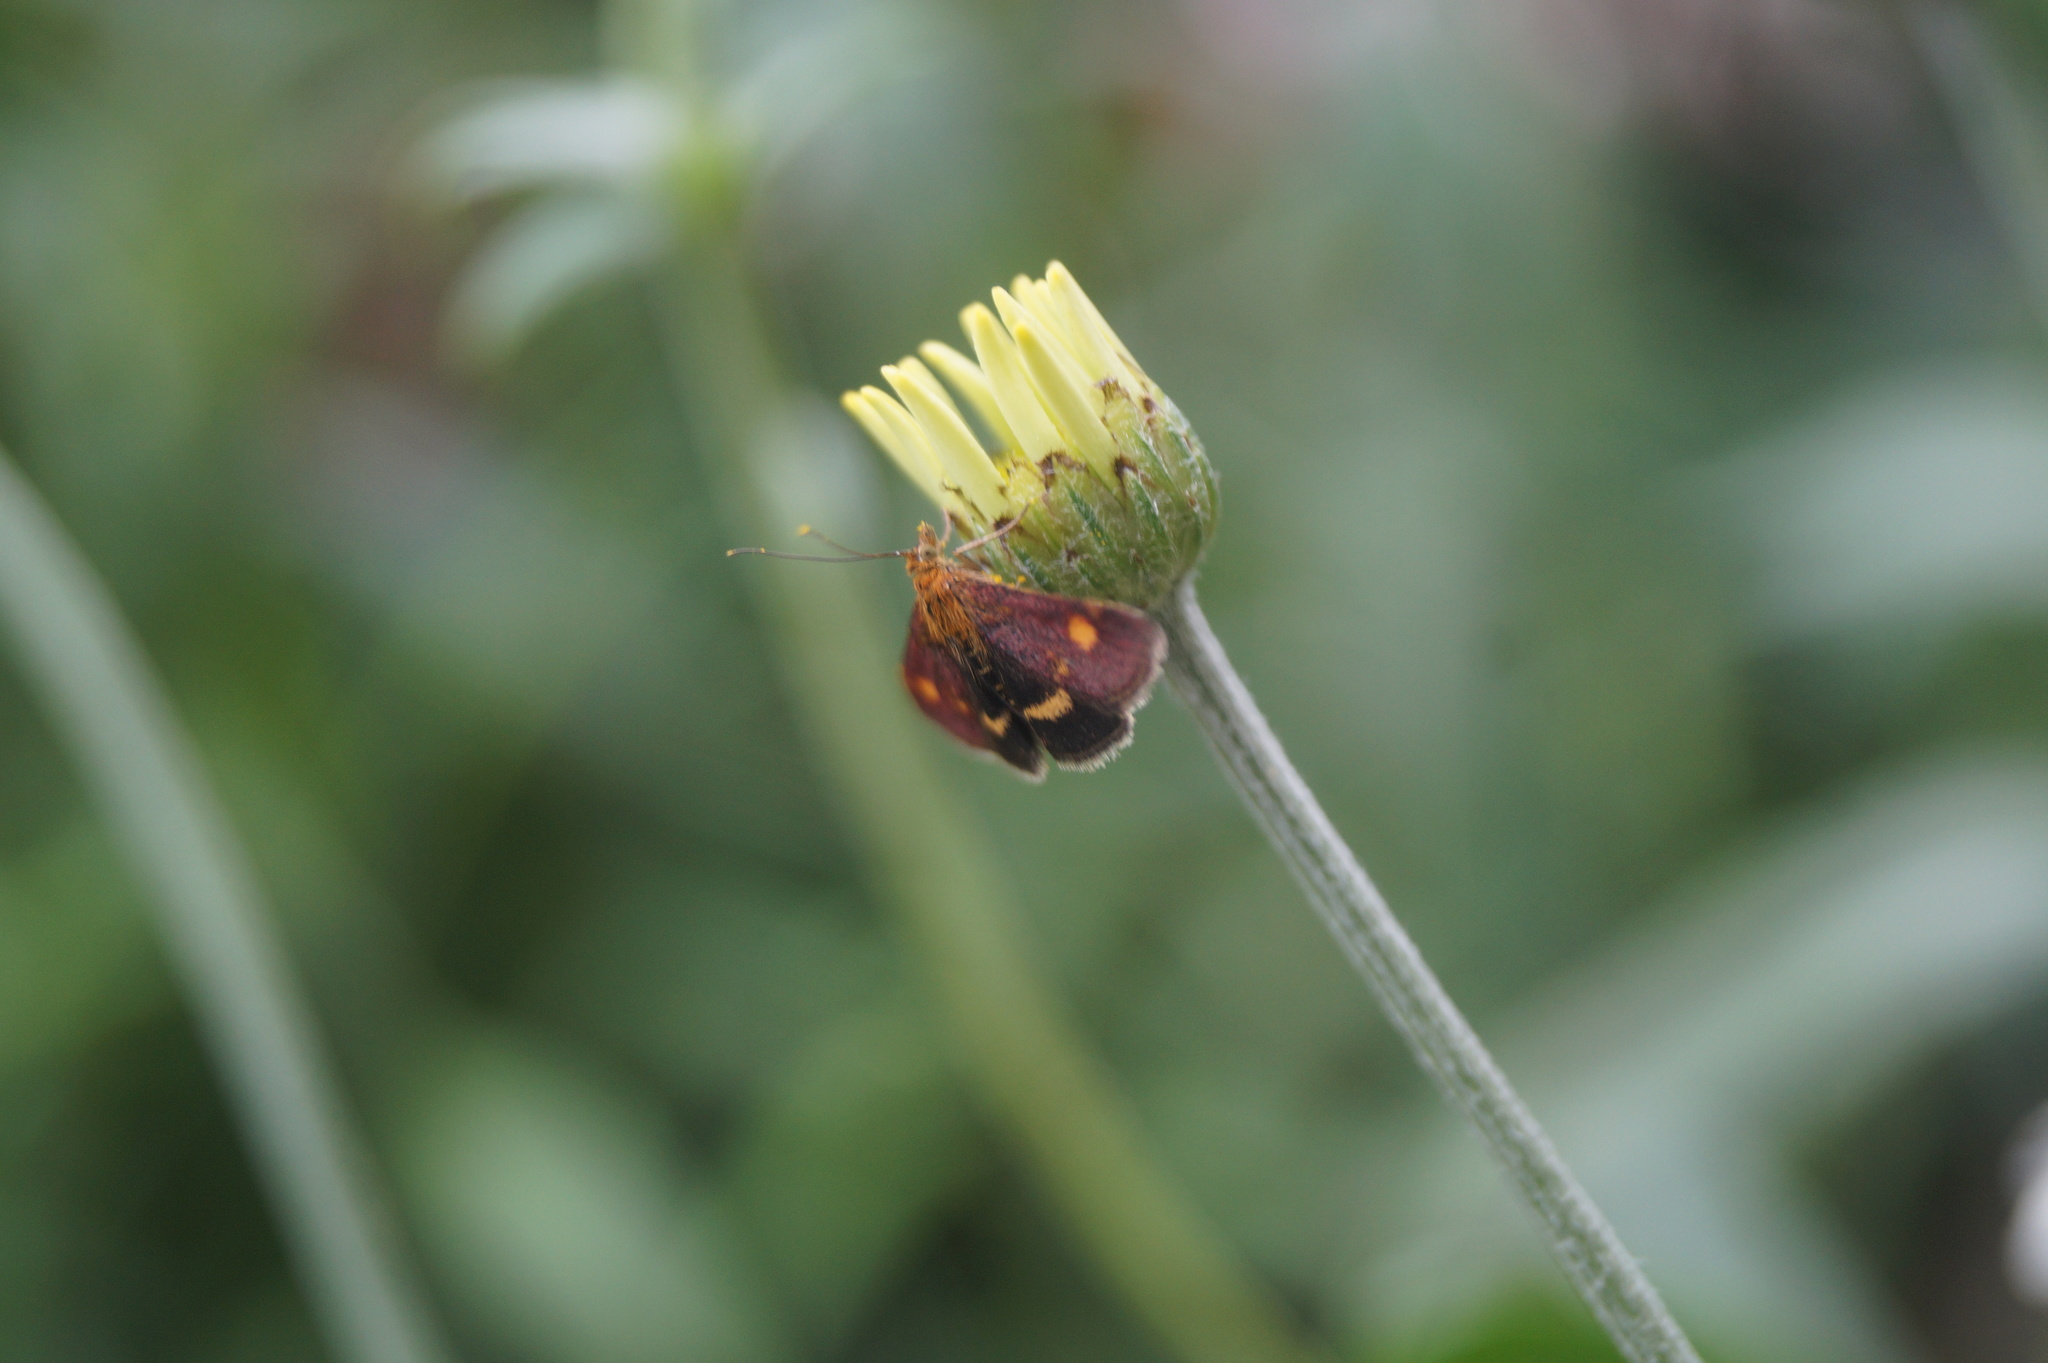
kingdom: Animalia
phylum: Arthropoda
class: Insecta
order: Lepidoptera
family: Crambidae
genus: Pyrausta
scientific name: Pyrausta aurata
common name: Small purple & gold
